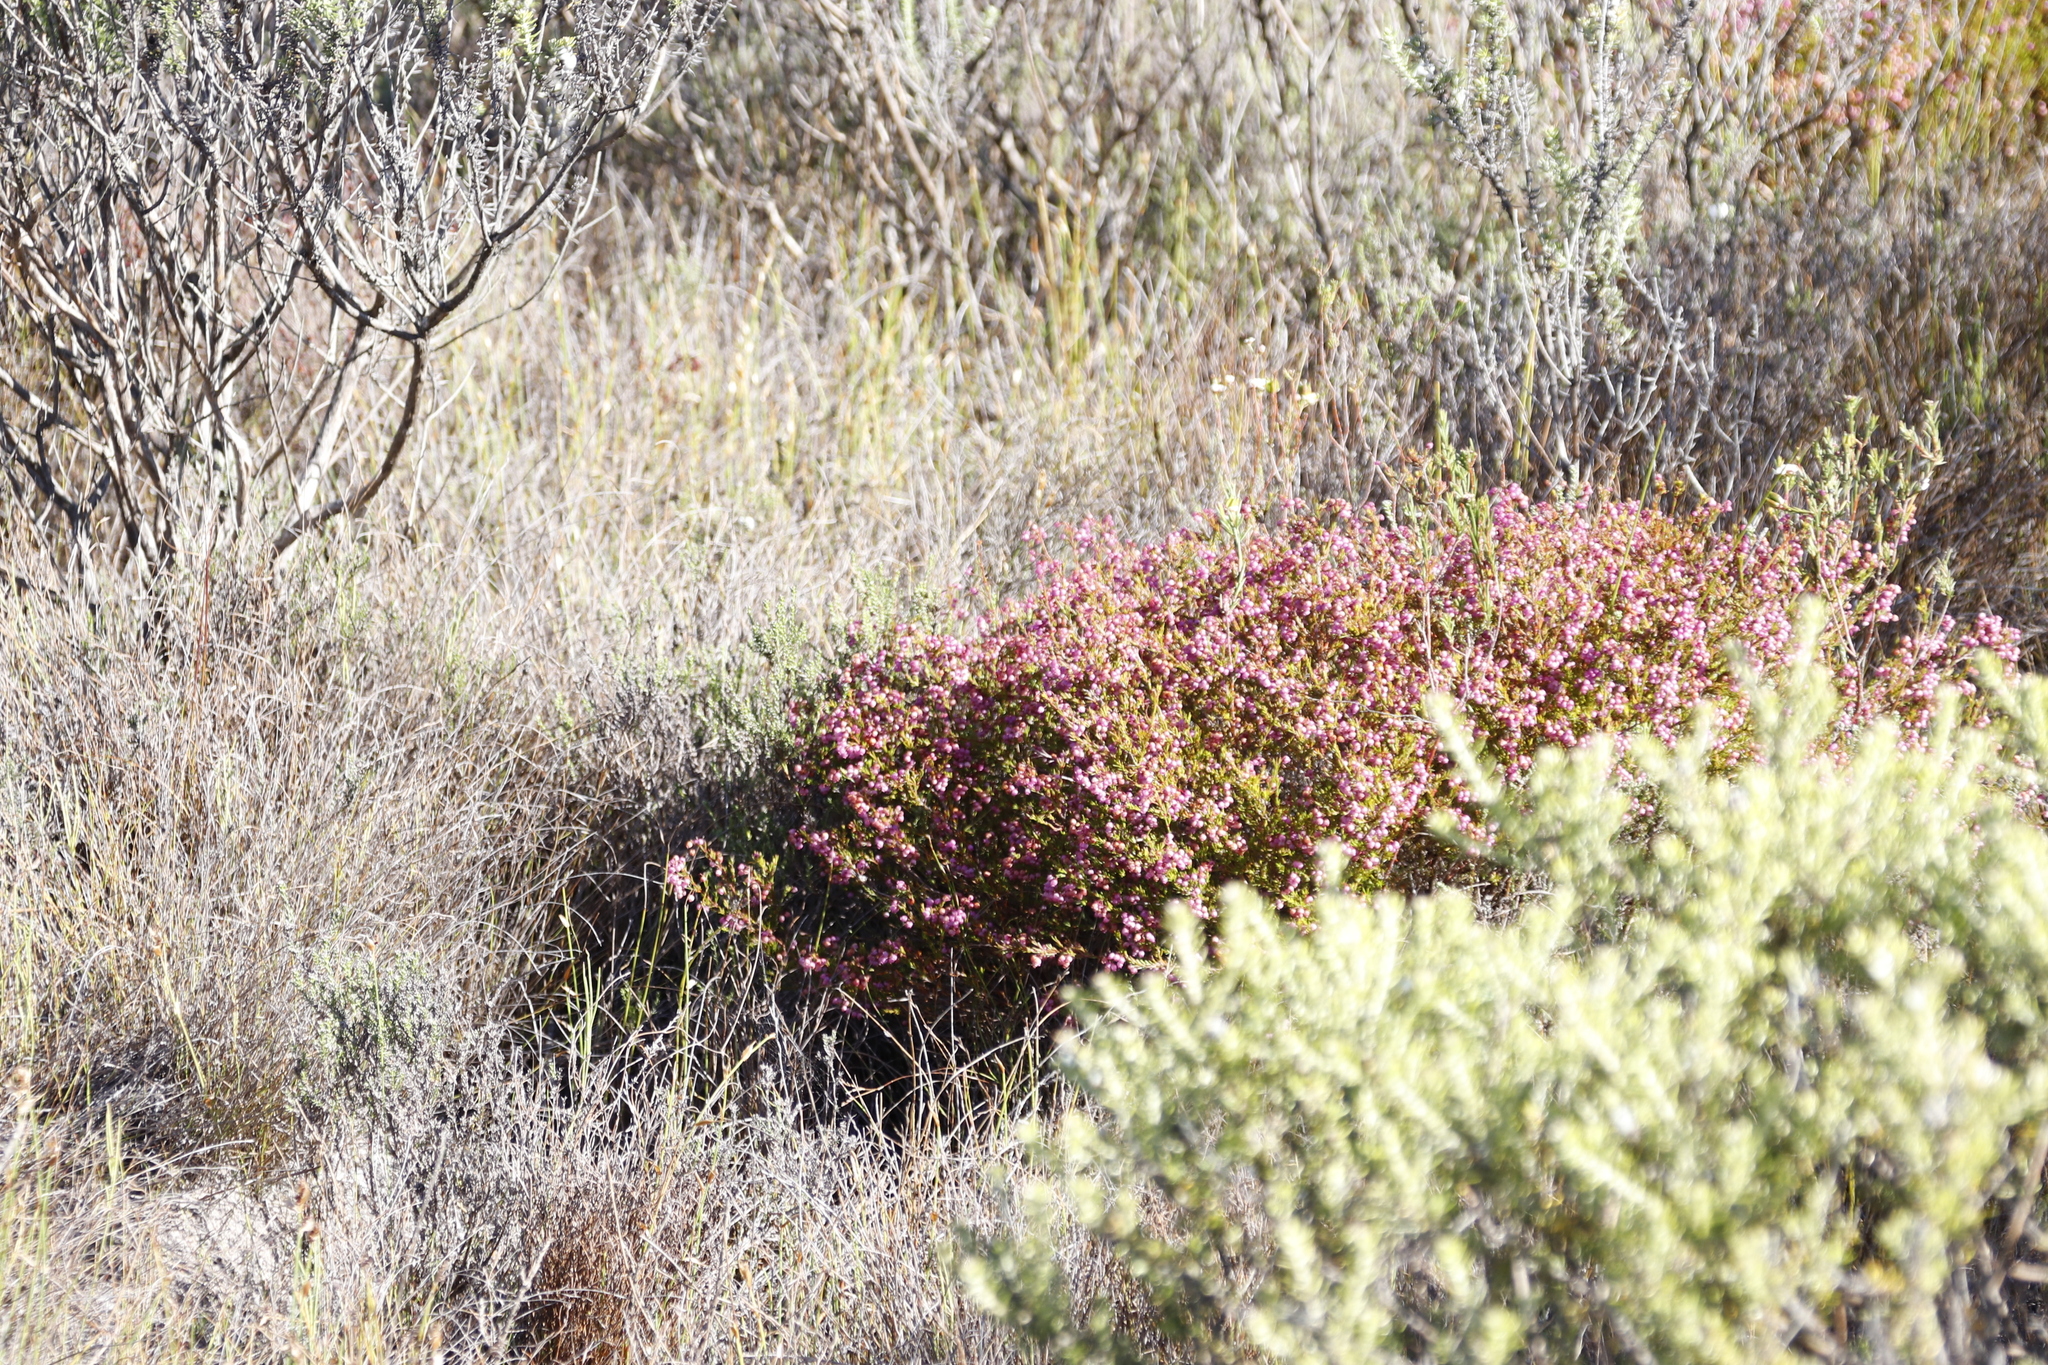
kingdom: Plantae
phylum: Tracheophyta
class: Magnoliopsida
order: Ericales
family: Ericaceae
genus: Erica
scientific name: Erica multumbellifera
